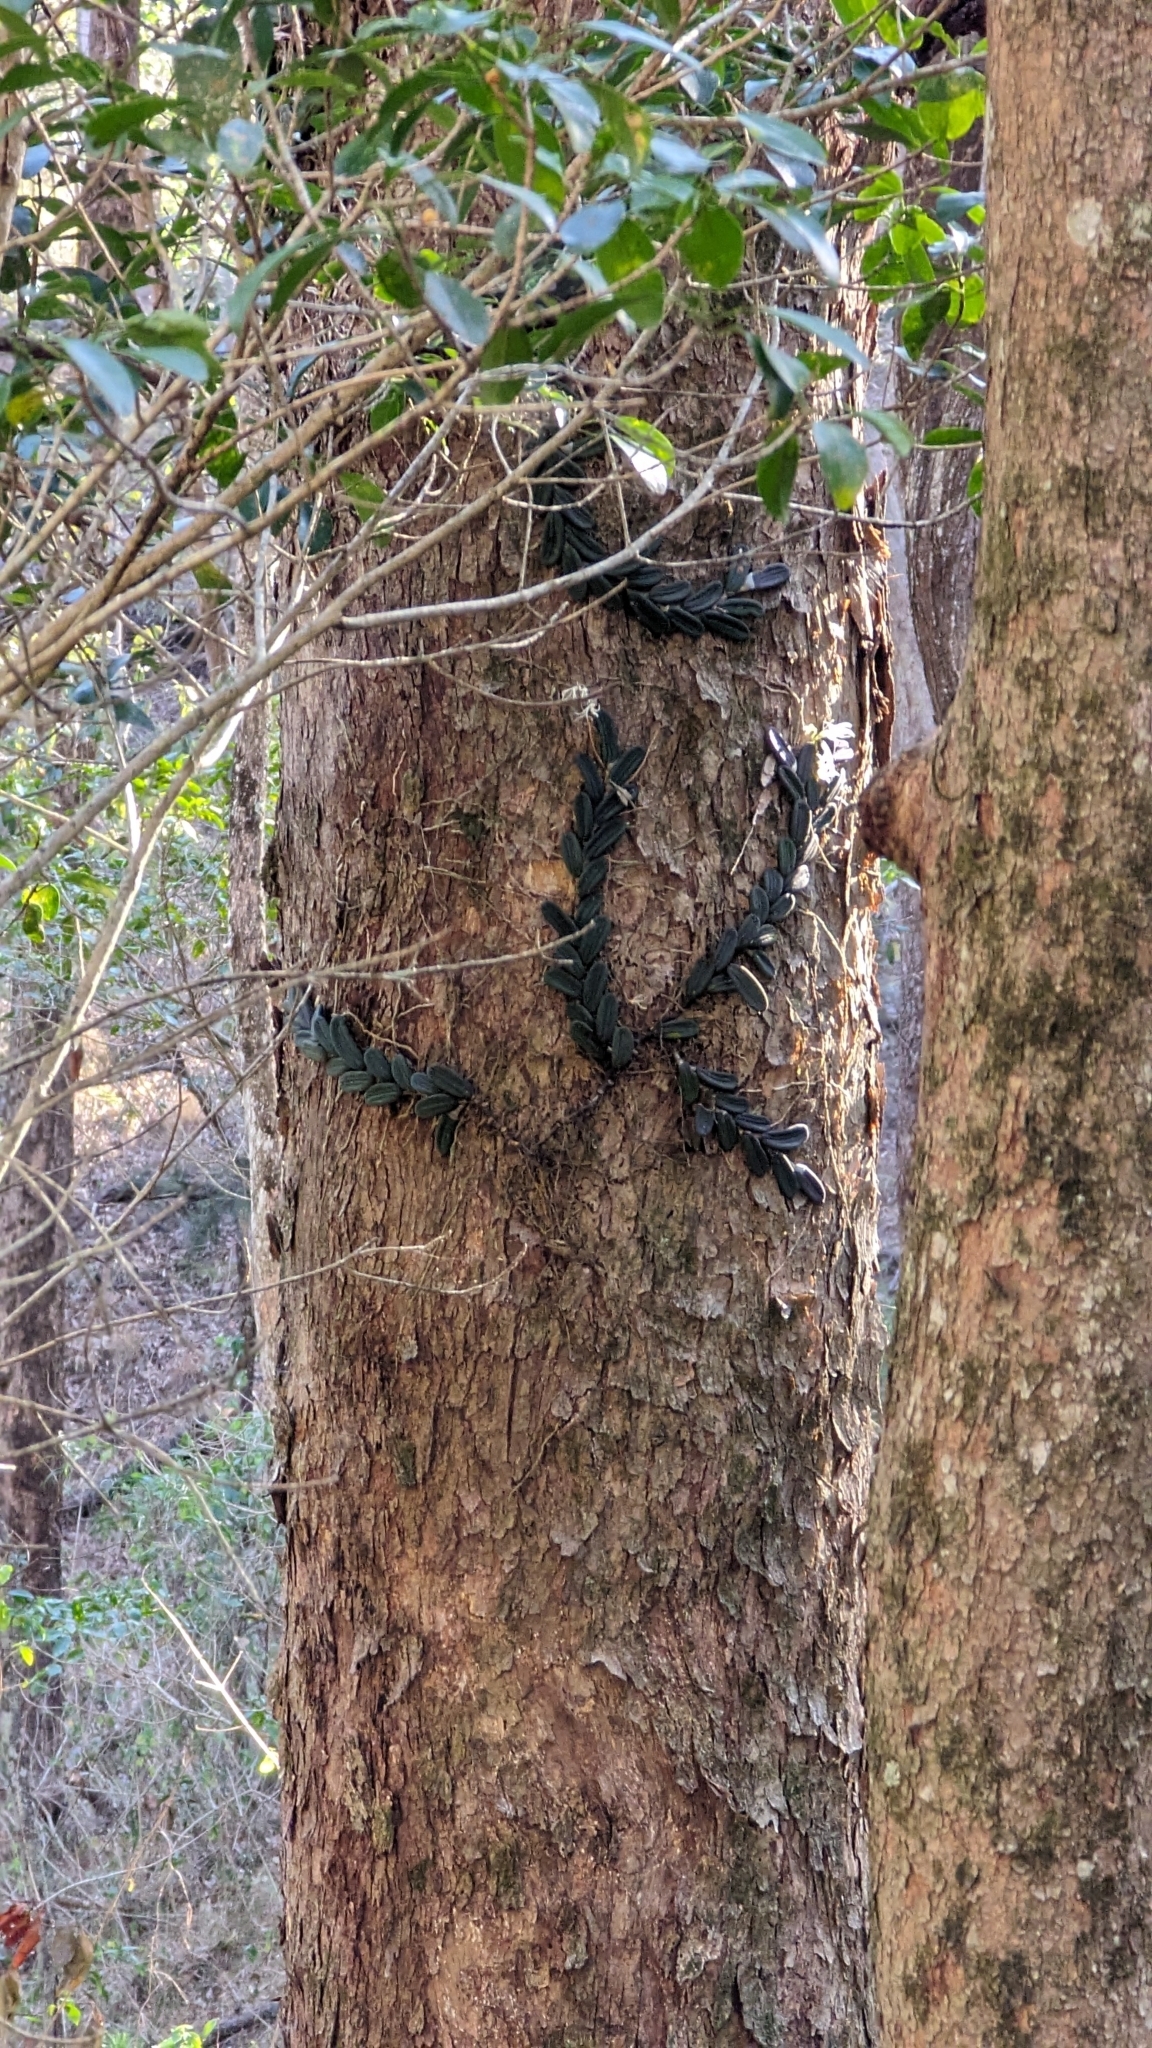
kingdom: Plantae
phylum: Tracheophyta
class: Liliopsida
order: Asparagales
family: Orchidaceae
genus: Dendrobium
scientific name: Dendrobium linguiforme
